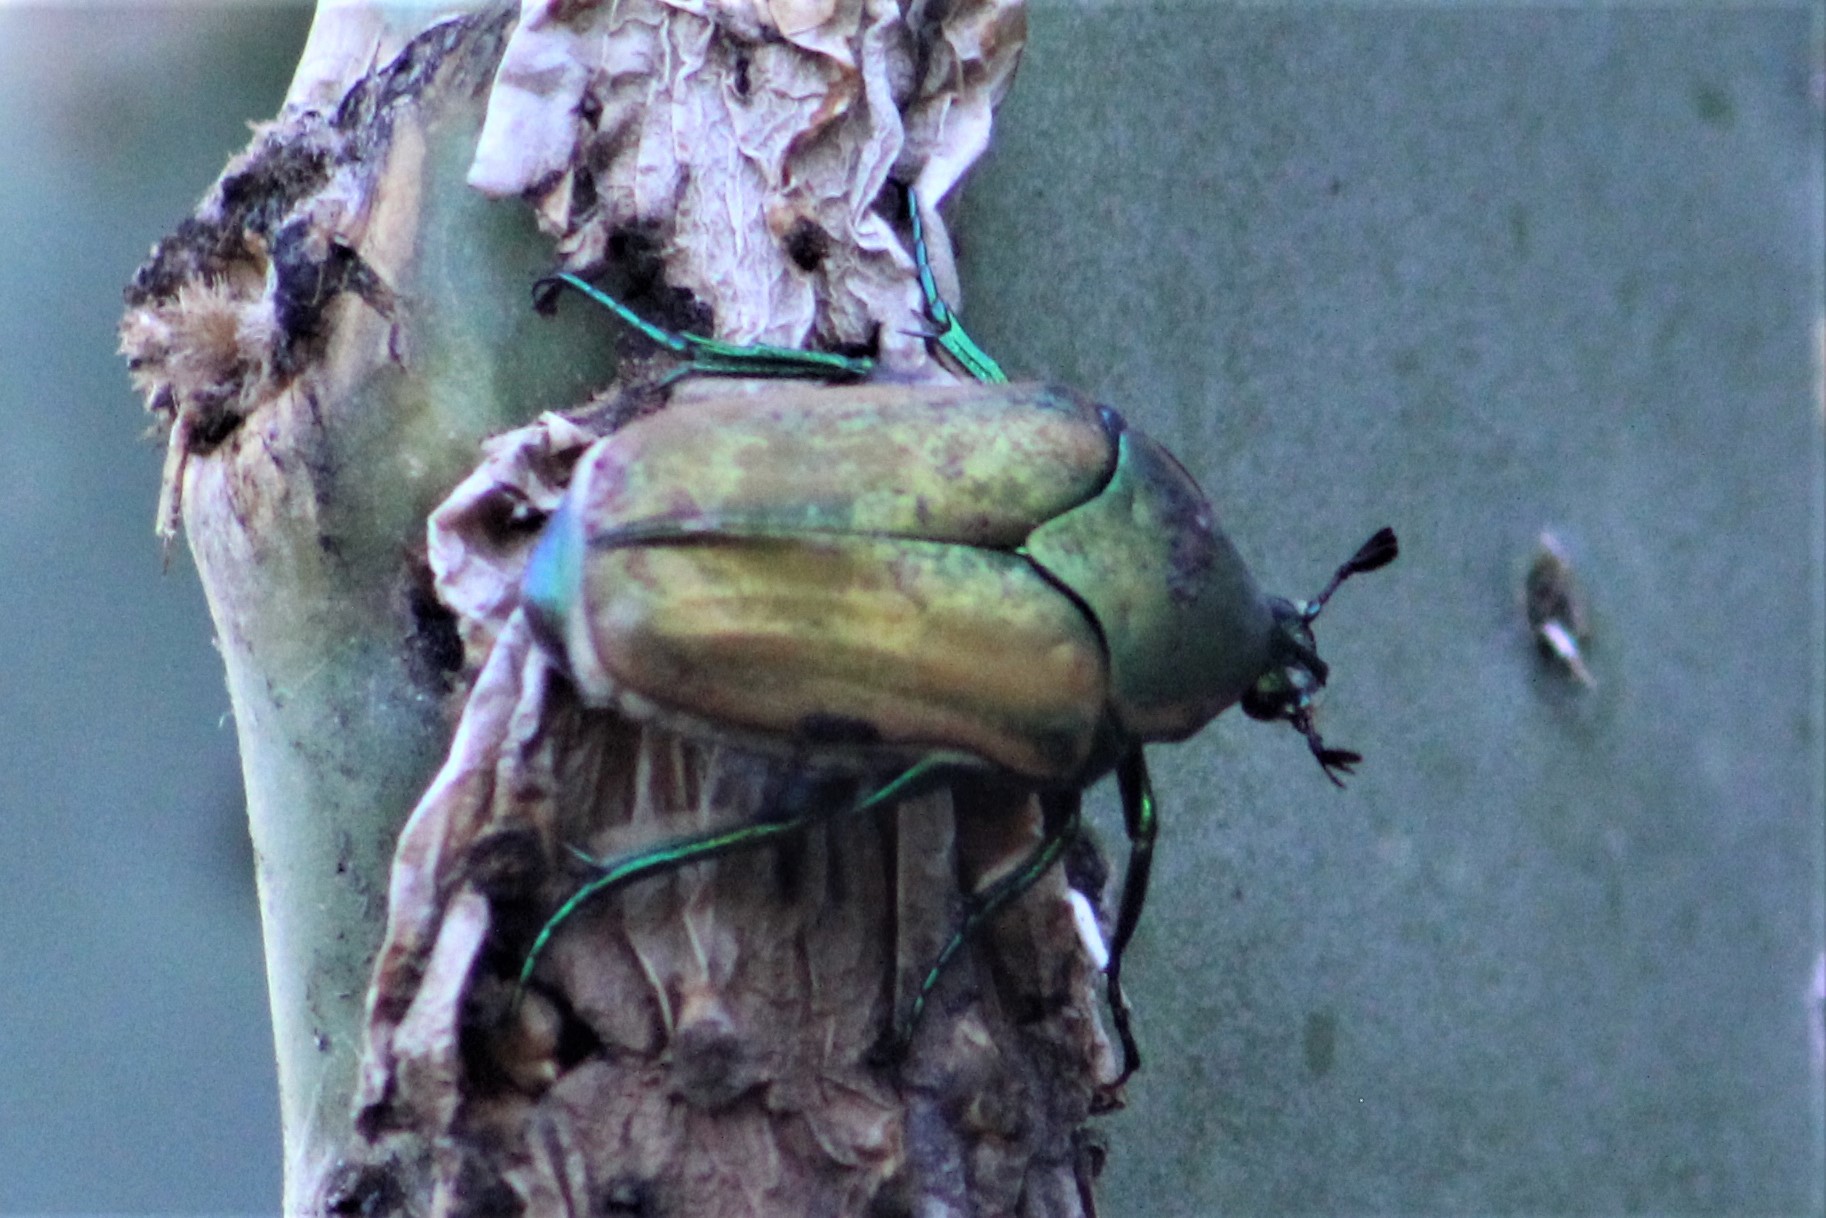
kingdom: Animalia
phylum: Arthropoda
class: Insecta
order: Coleoptera
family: Scarabaeidae
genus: Cotinis
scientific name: Cotinis mutabilis
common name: Figeater beetle
